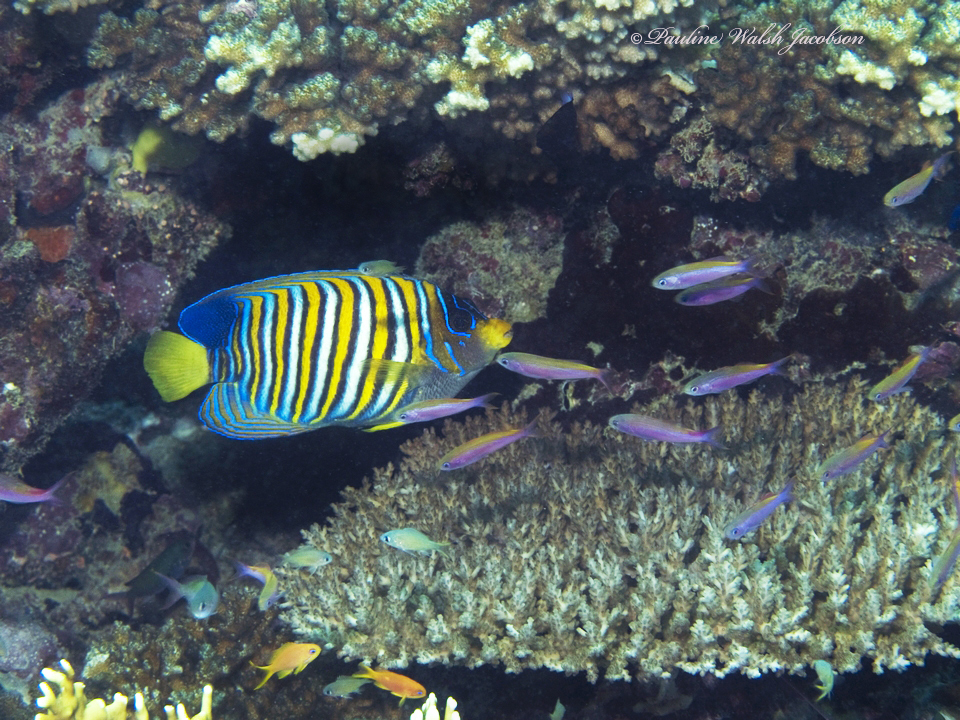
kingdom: Animalia
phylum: Chordata
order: Perciformes
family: Serranidae
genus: Luzonichthys
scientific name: Luzonichthys waitei
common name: Waite's splitfin
